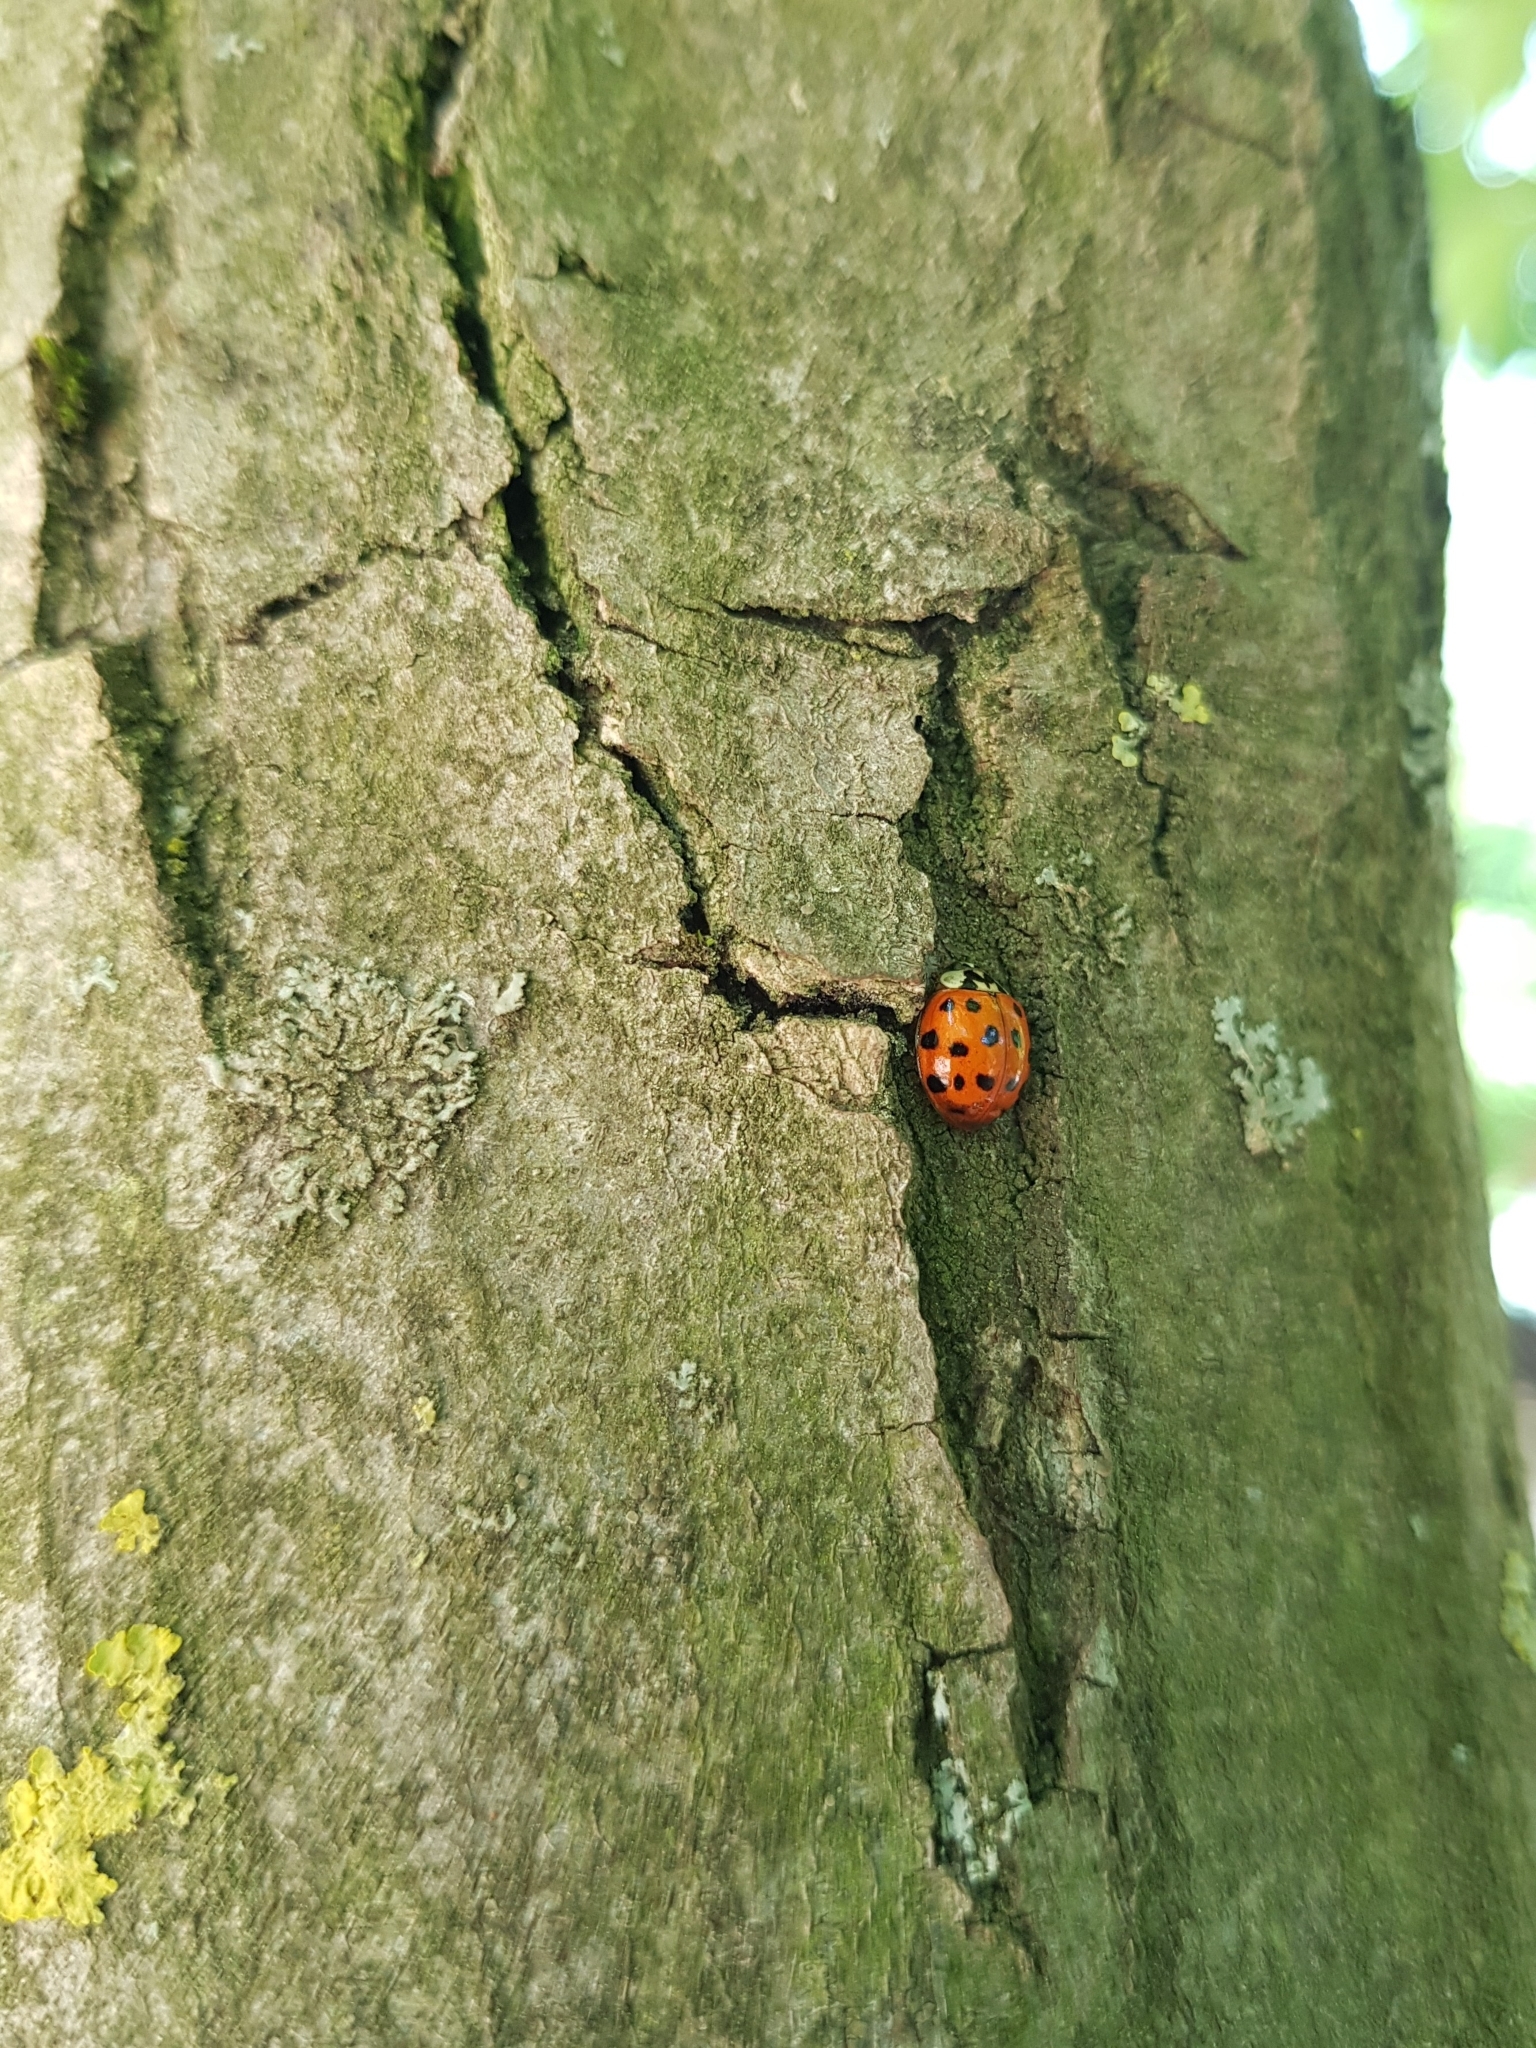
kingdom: Animalia
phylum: Arthropoda
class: Insecta
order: Coleoptera
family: Coccinellidae
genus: Harmonia
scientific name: Harmonia axyridis
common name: Harlequin ladybird
